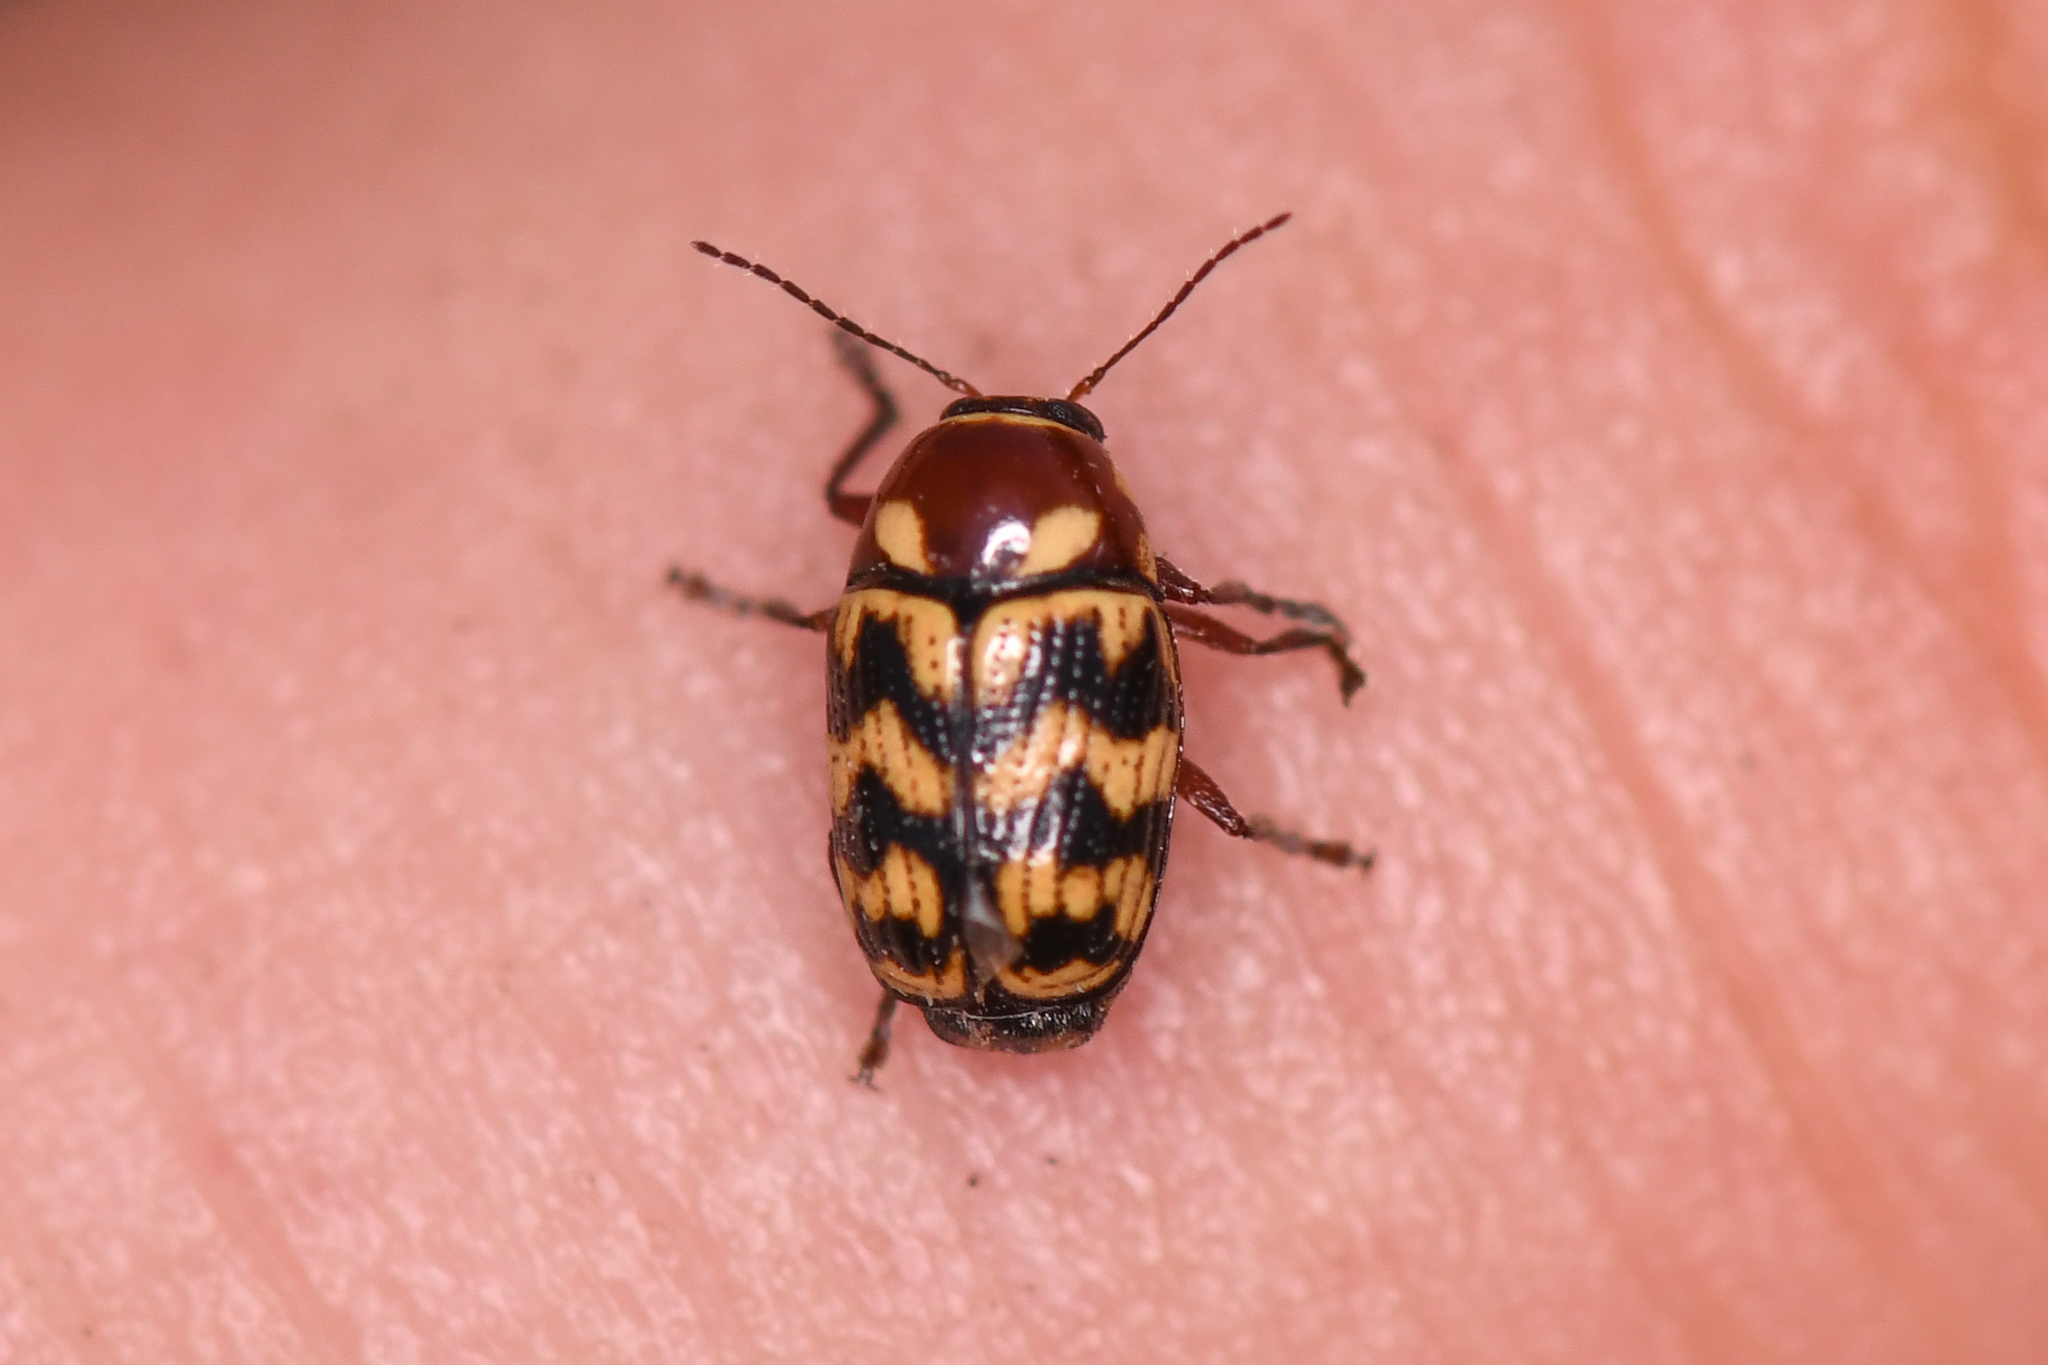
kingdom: Animalia
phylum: Arthropoda
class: Insecta
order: Coleoptera
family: Chrysomelidae
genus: Cryptocephalus
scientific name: Cryptocephalus triundulatus
